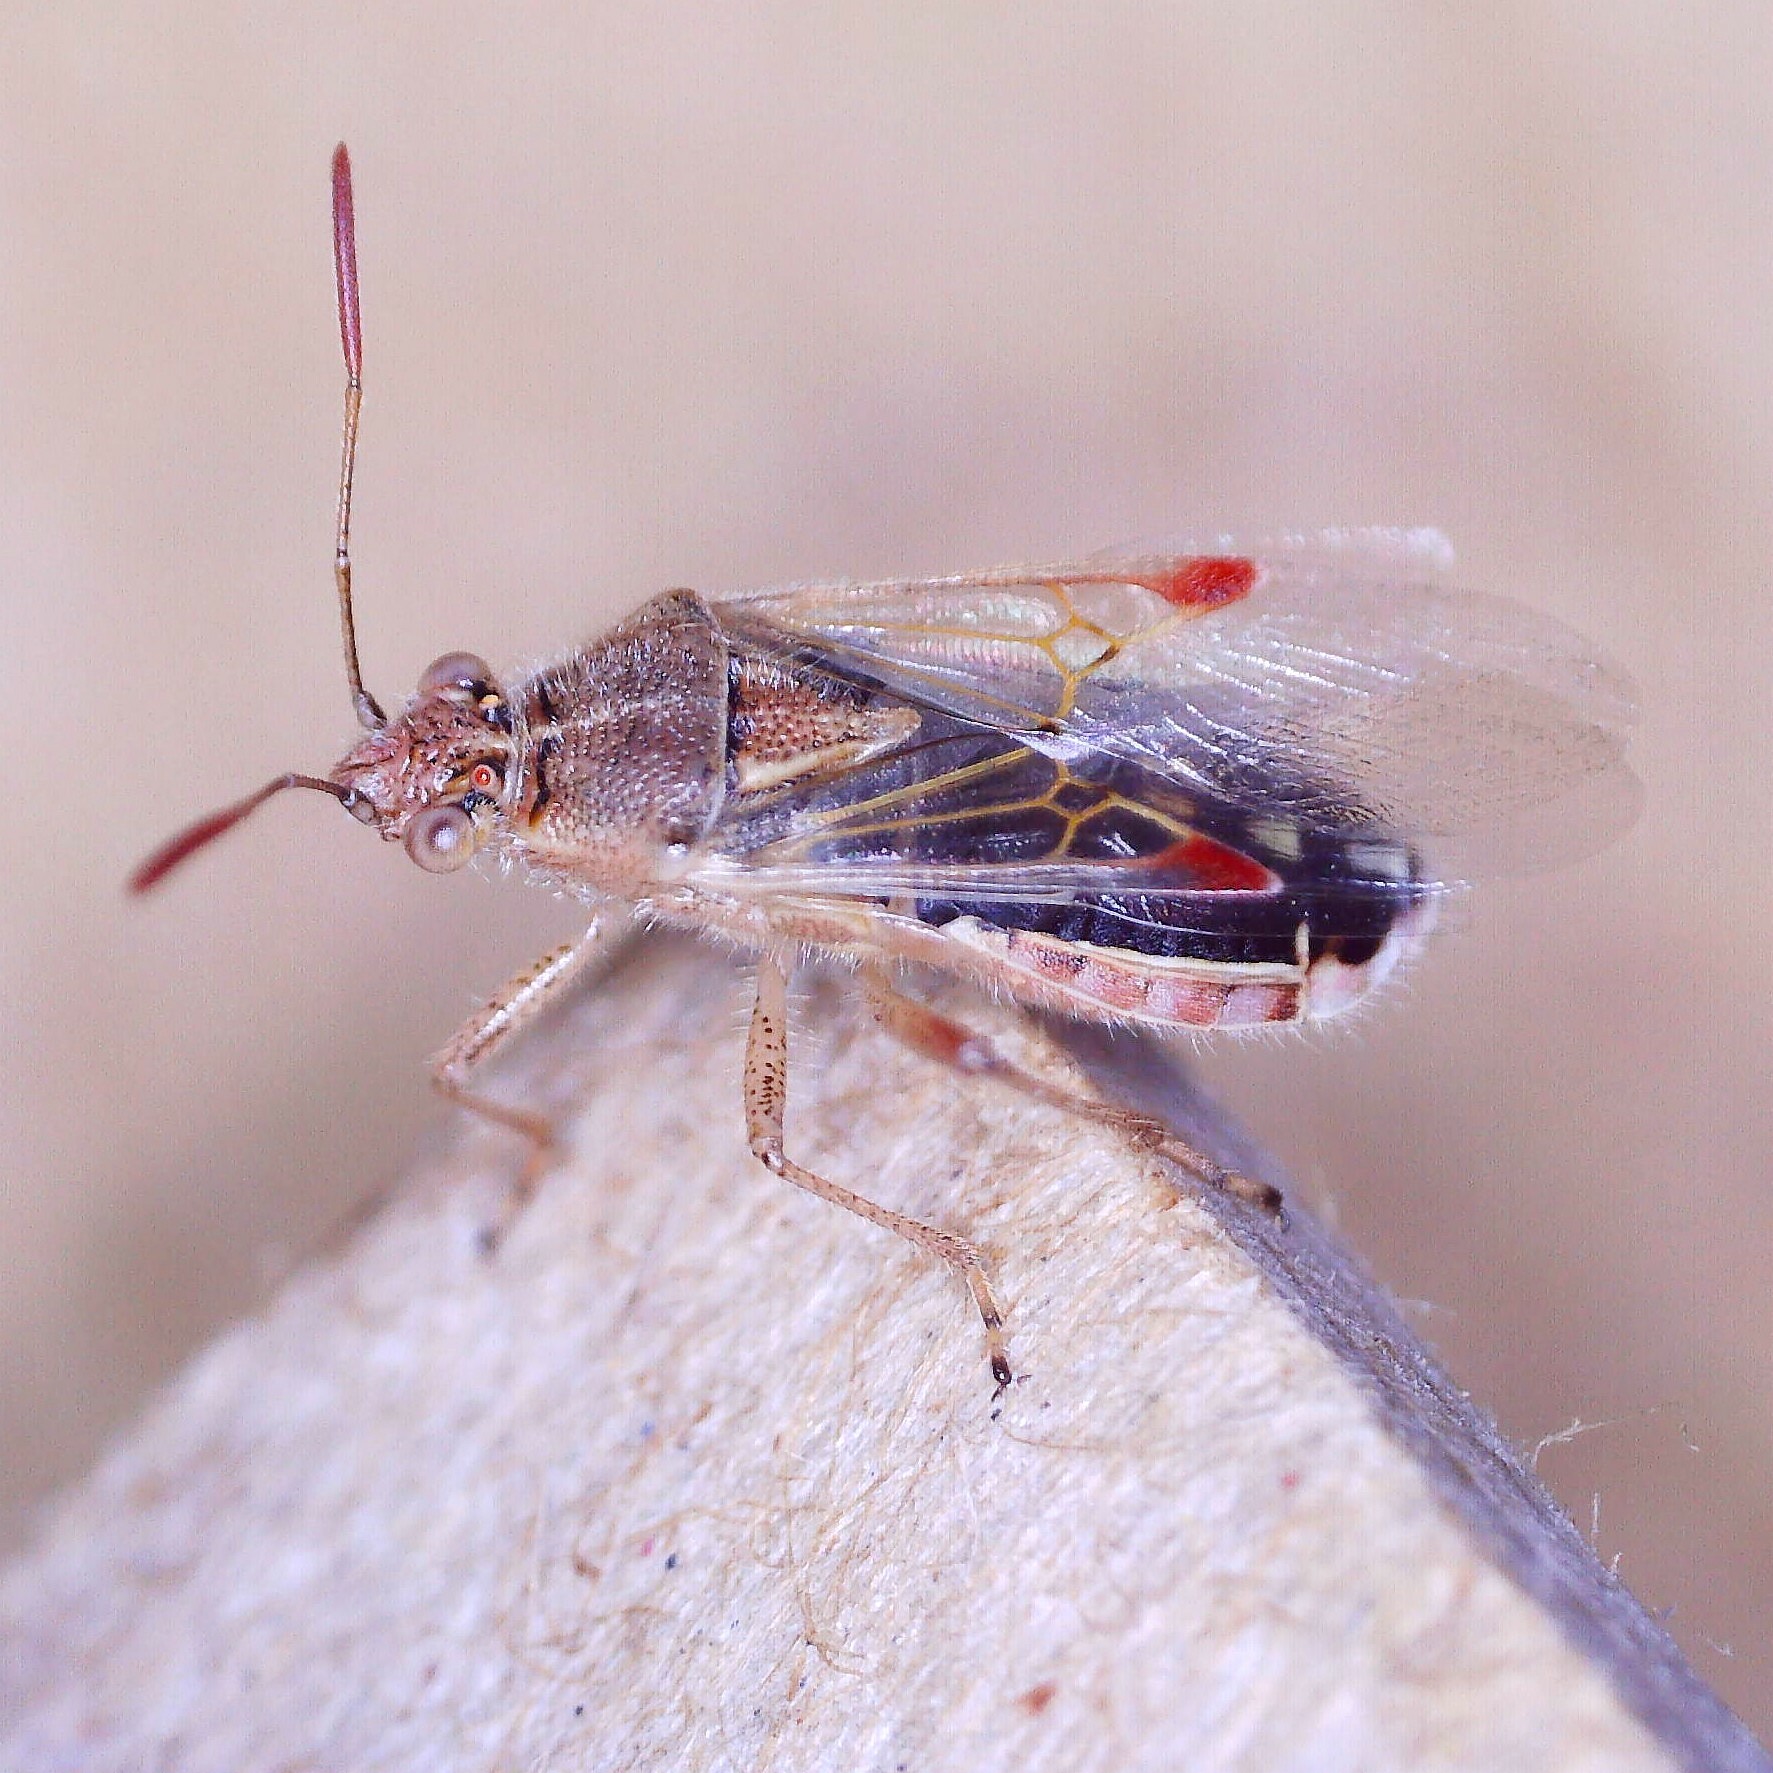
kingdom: Animalia
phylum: Arthropoda
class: Insecta
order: Hemiptera
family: Rhopalidae
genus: Liorhyssus
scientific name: Liorhyssus hyalinus
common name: Scentless plant bug
